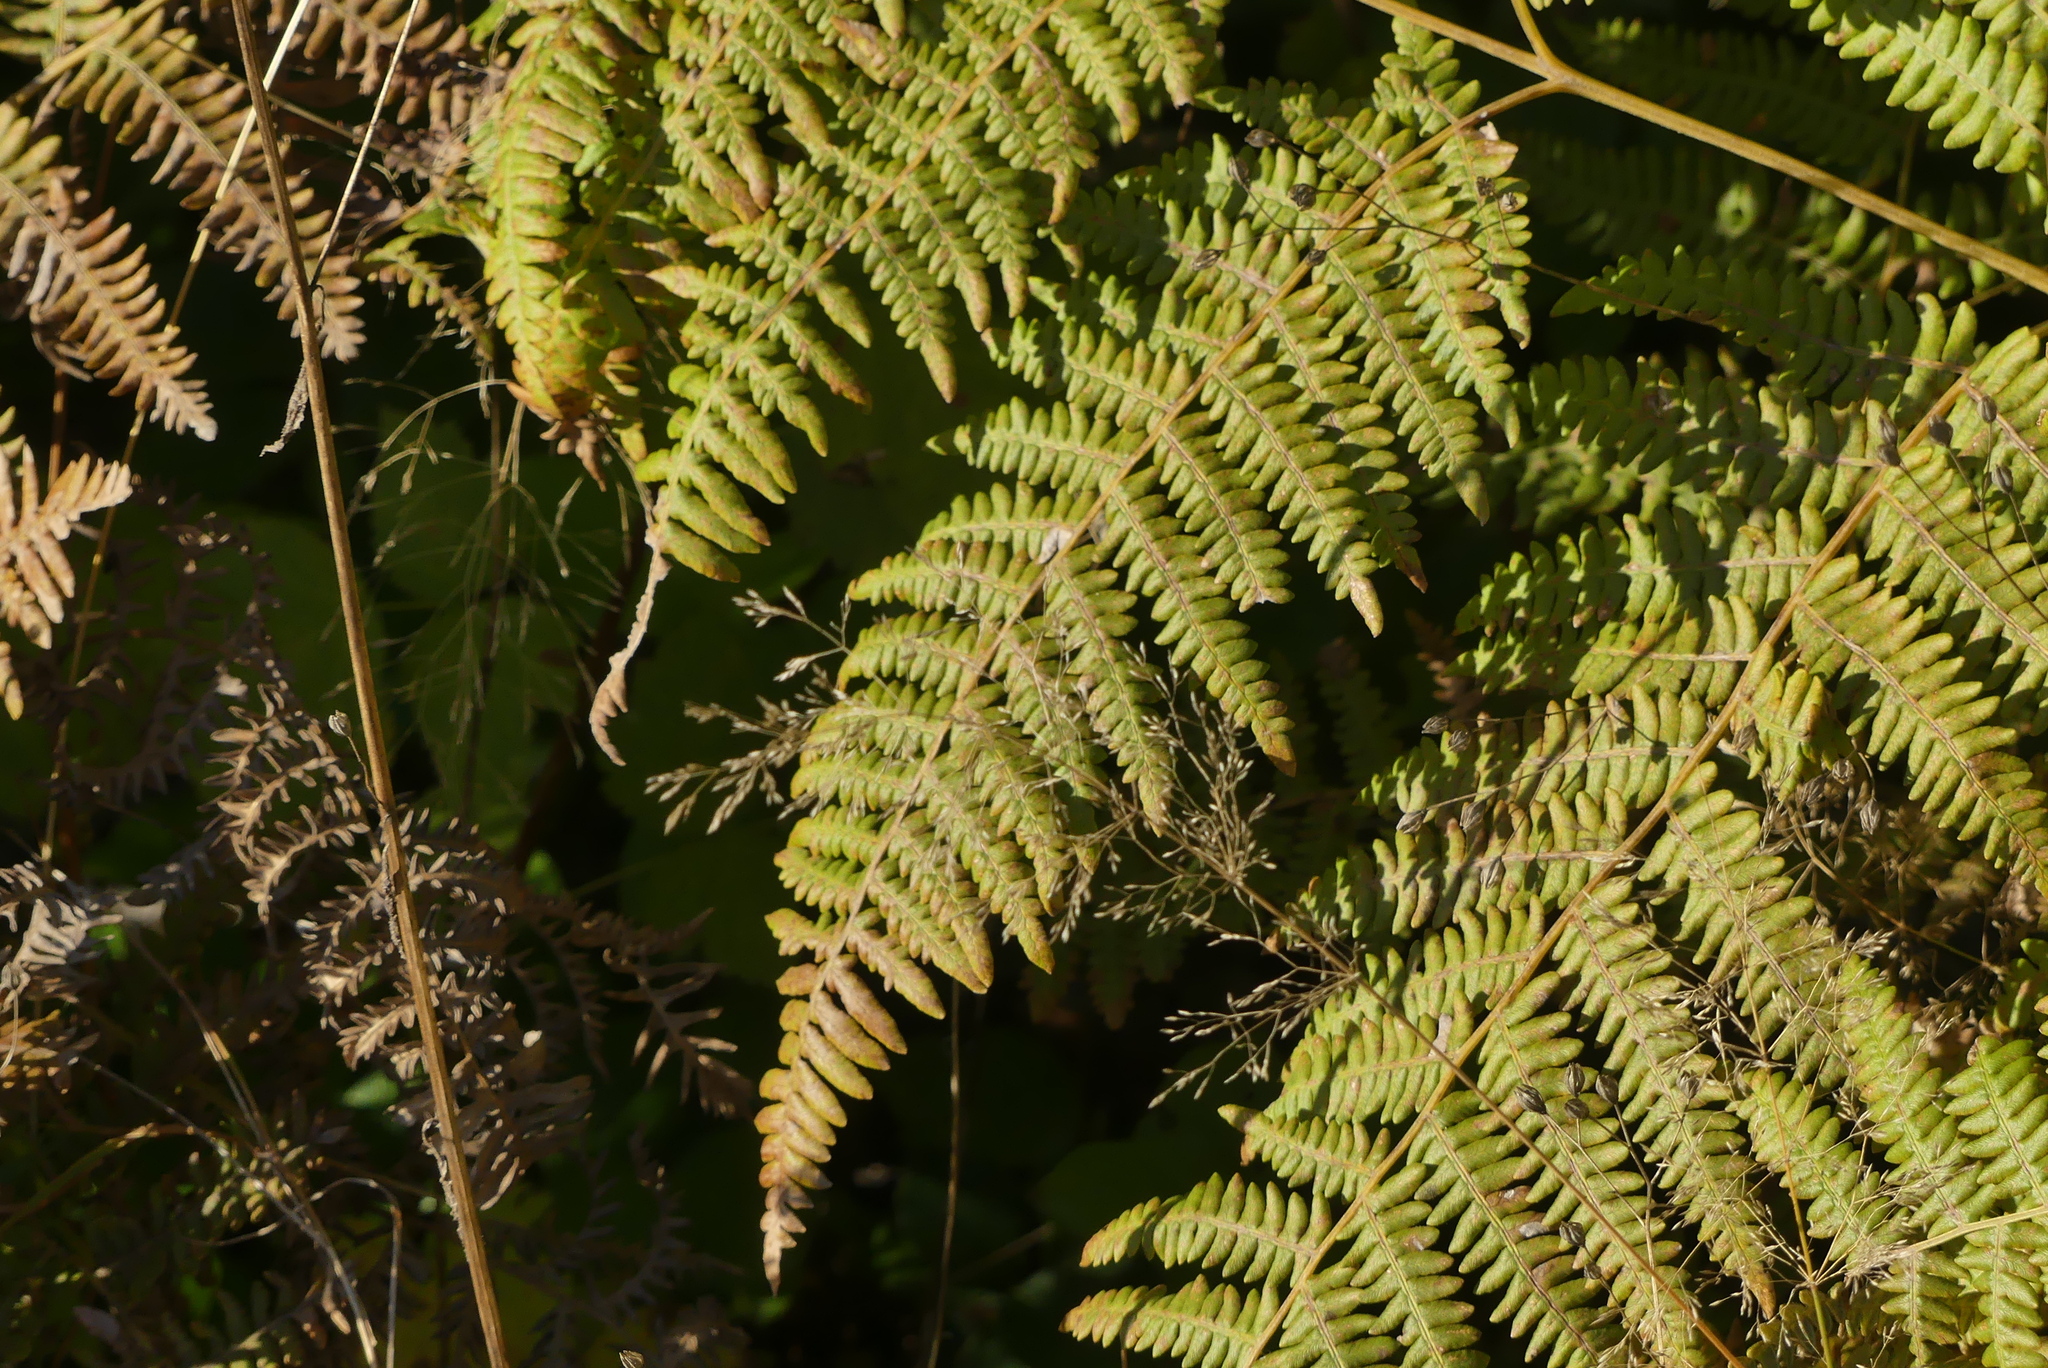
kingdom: Plantae
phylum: Tracheophyta
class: Polypodiopsida
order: Polypodiales
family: Dennstaedtiaceae
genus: Pteridium
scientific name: Pteridium aquilinum
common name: Bracken
